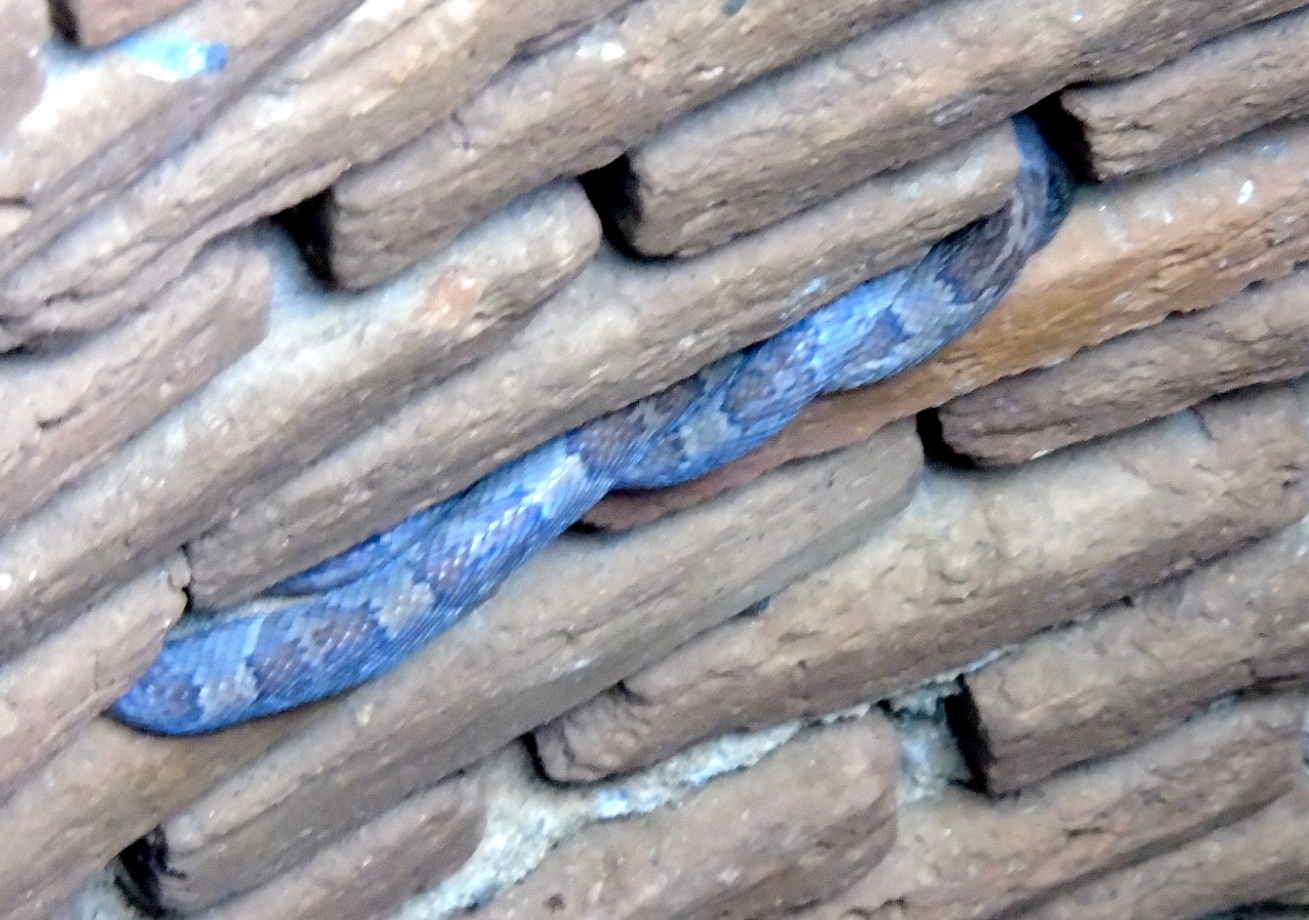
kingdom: Animalia
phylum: Chordata
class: Squamata
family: Colubridae
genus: Trimorphodon
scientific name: Trimorphodon paucimaculatus
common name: Sinaloan lyresnake
